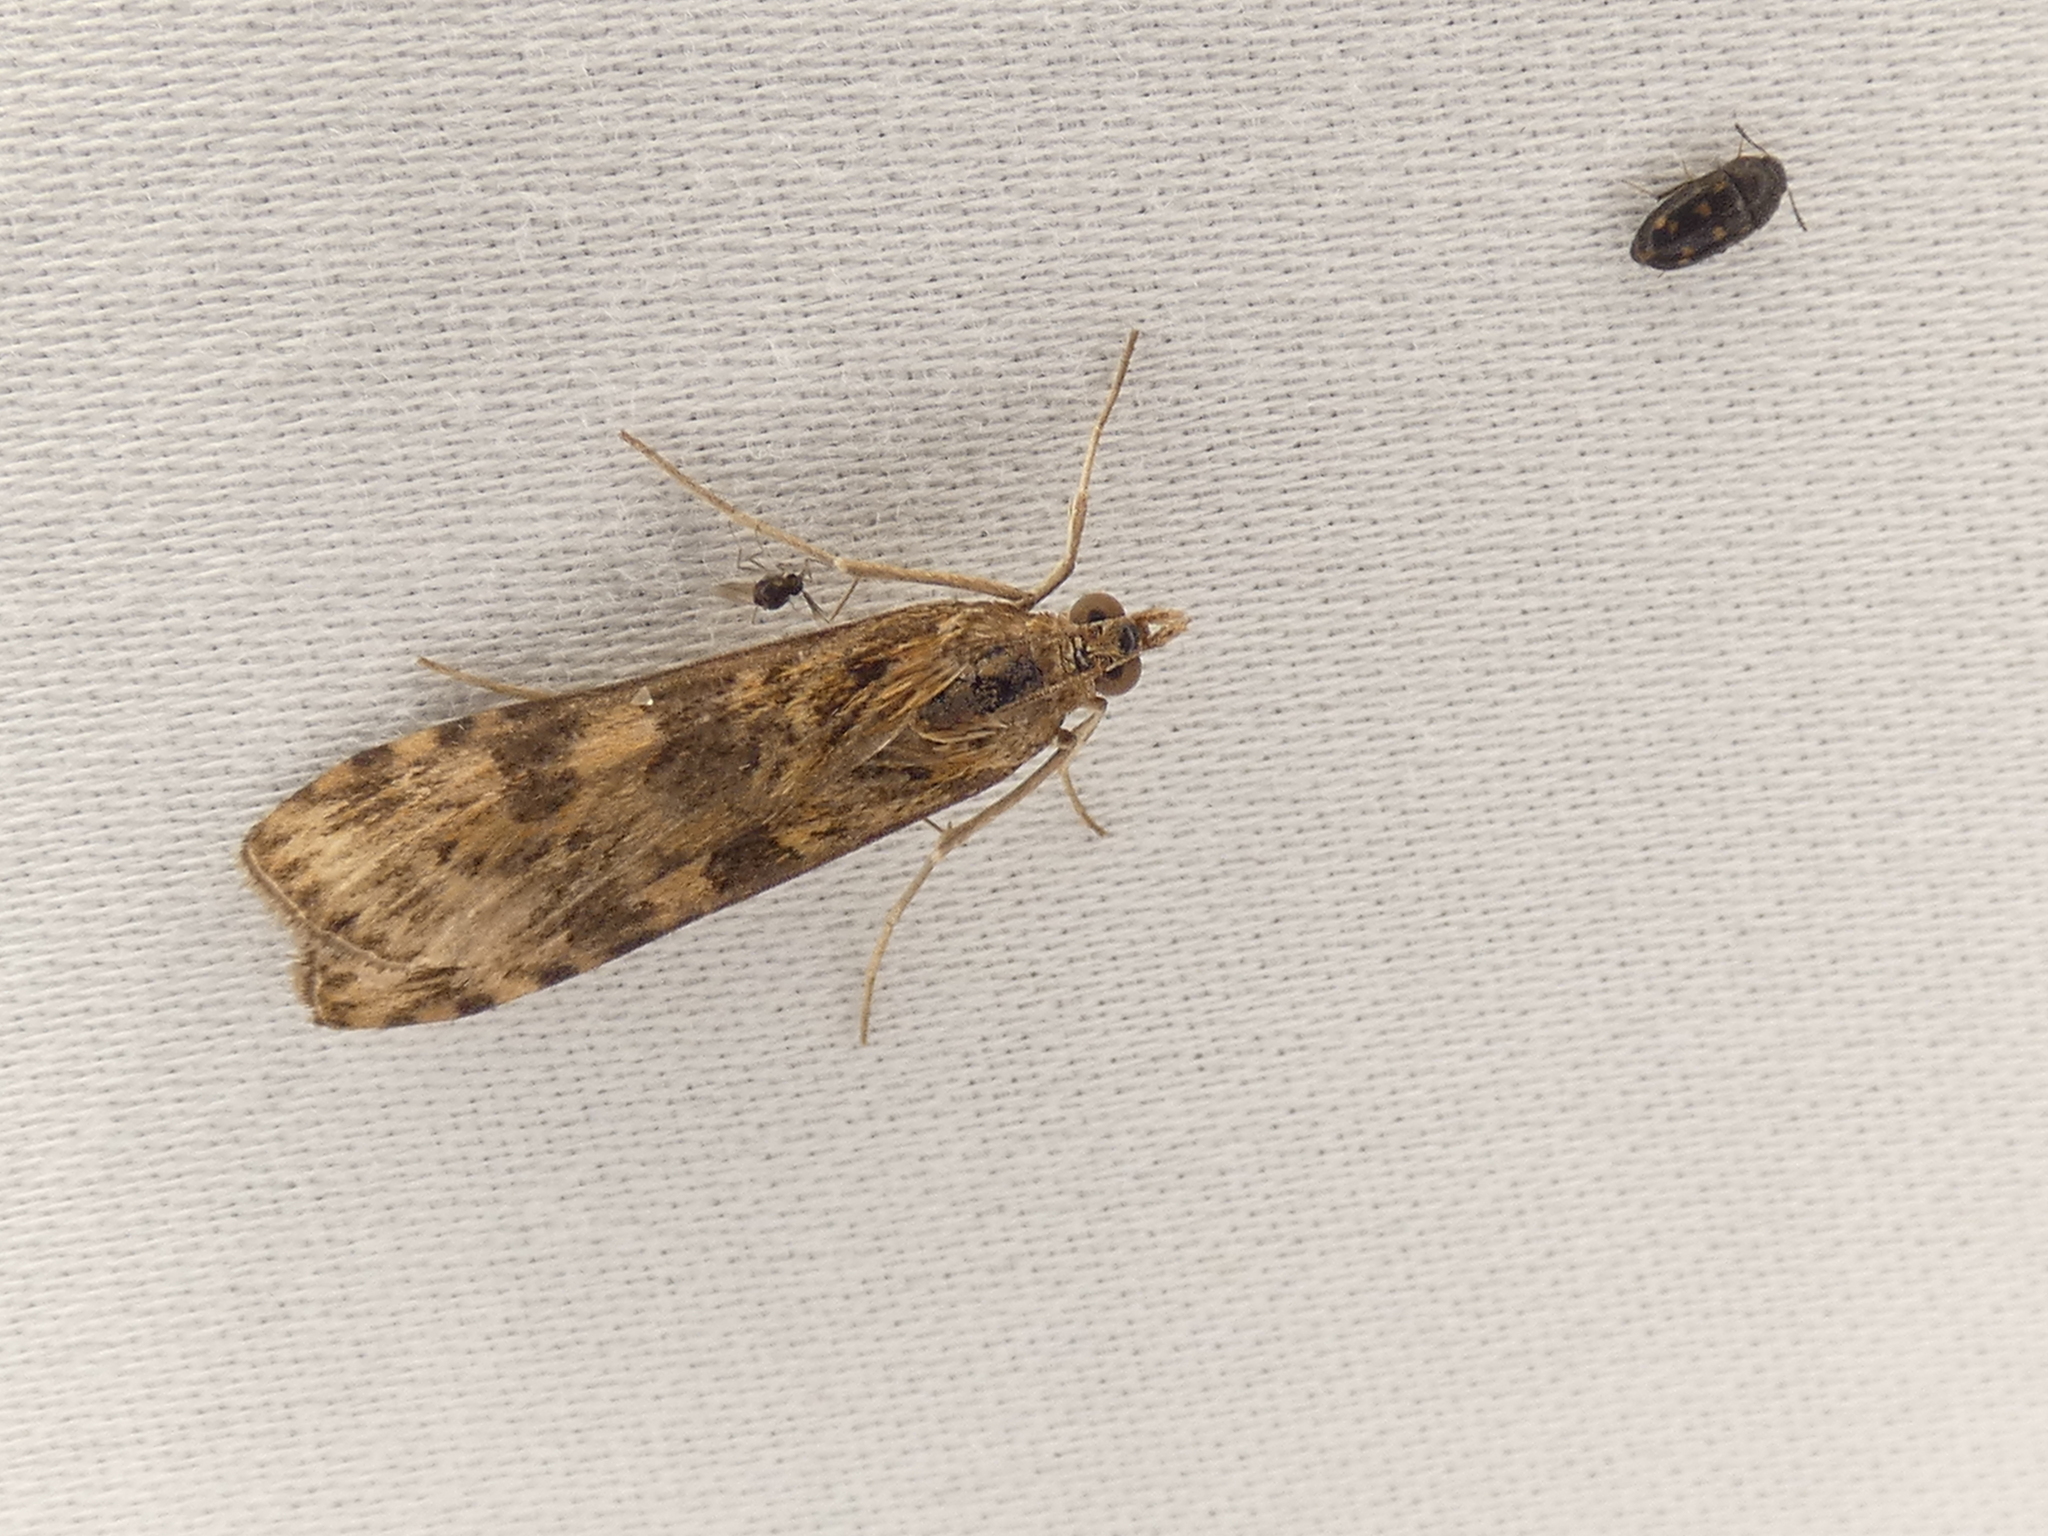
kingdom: Animalia
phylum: Arthropoda
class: Insecta
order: Lepidoptera
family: Crambidae
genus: Nomophila
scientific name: Nomophila nearctica
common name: American rush veneer
